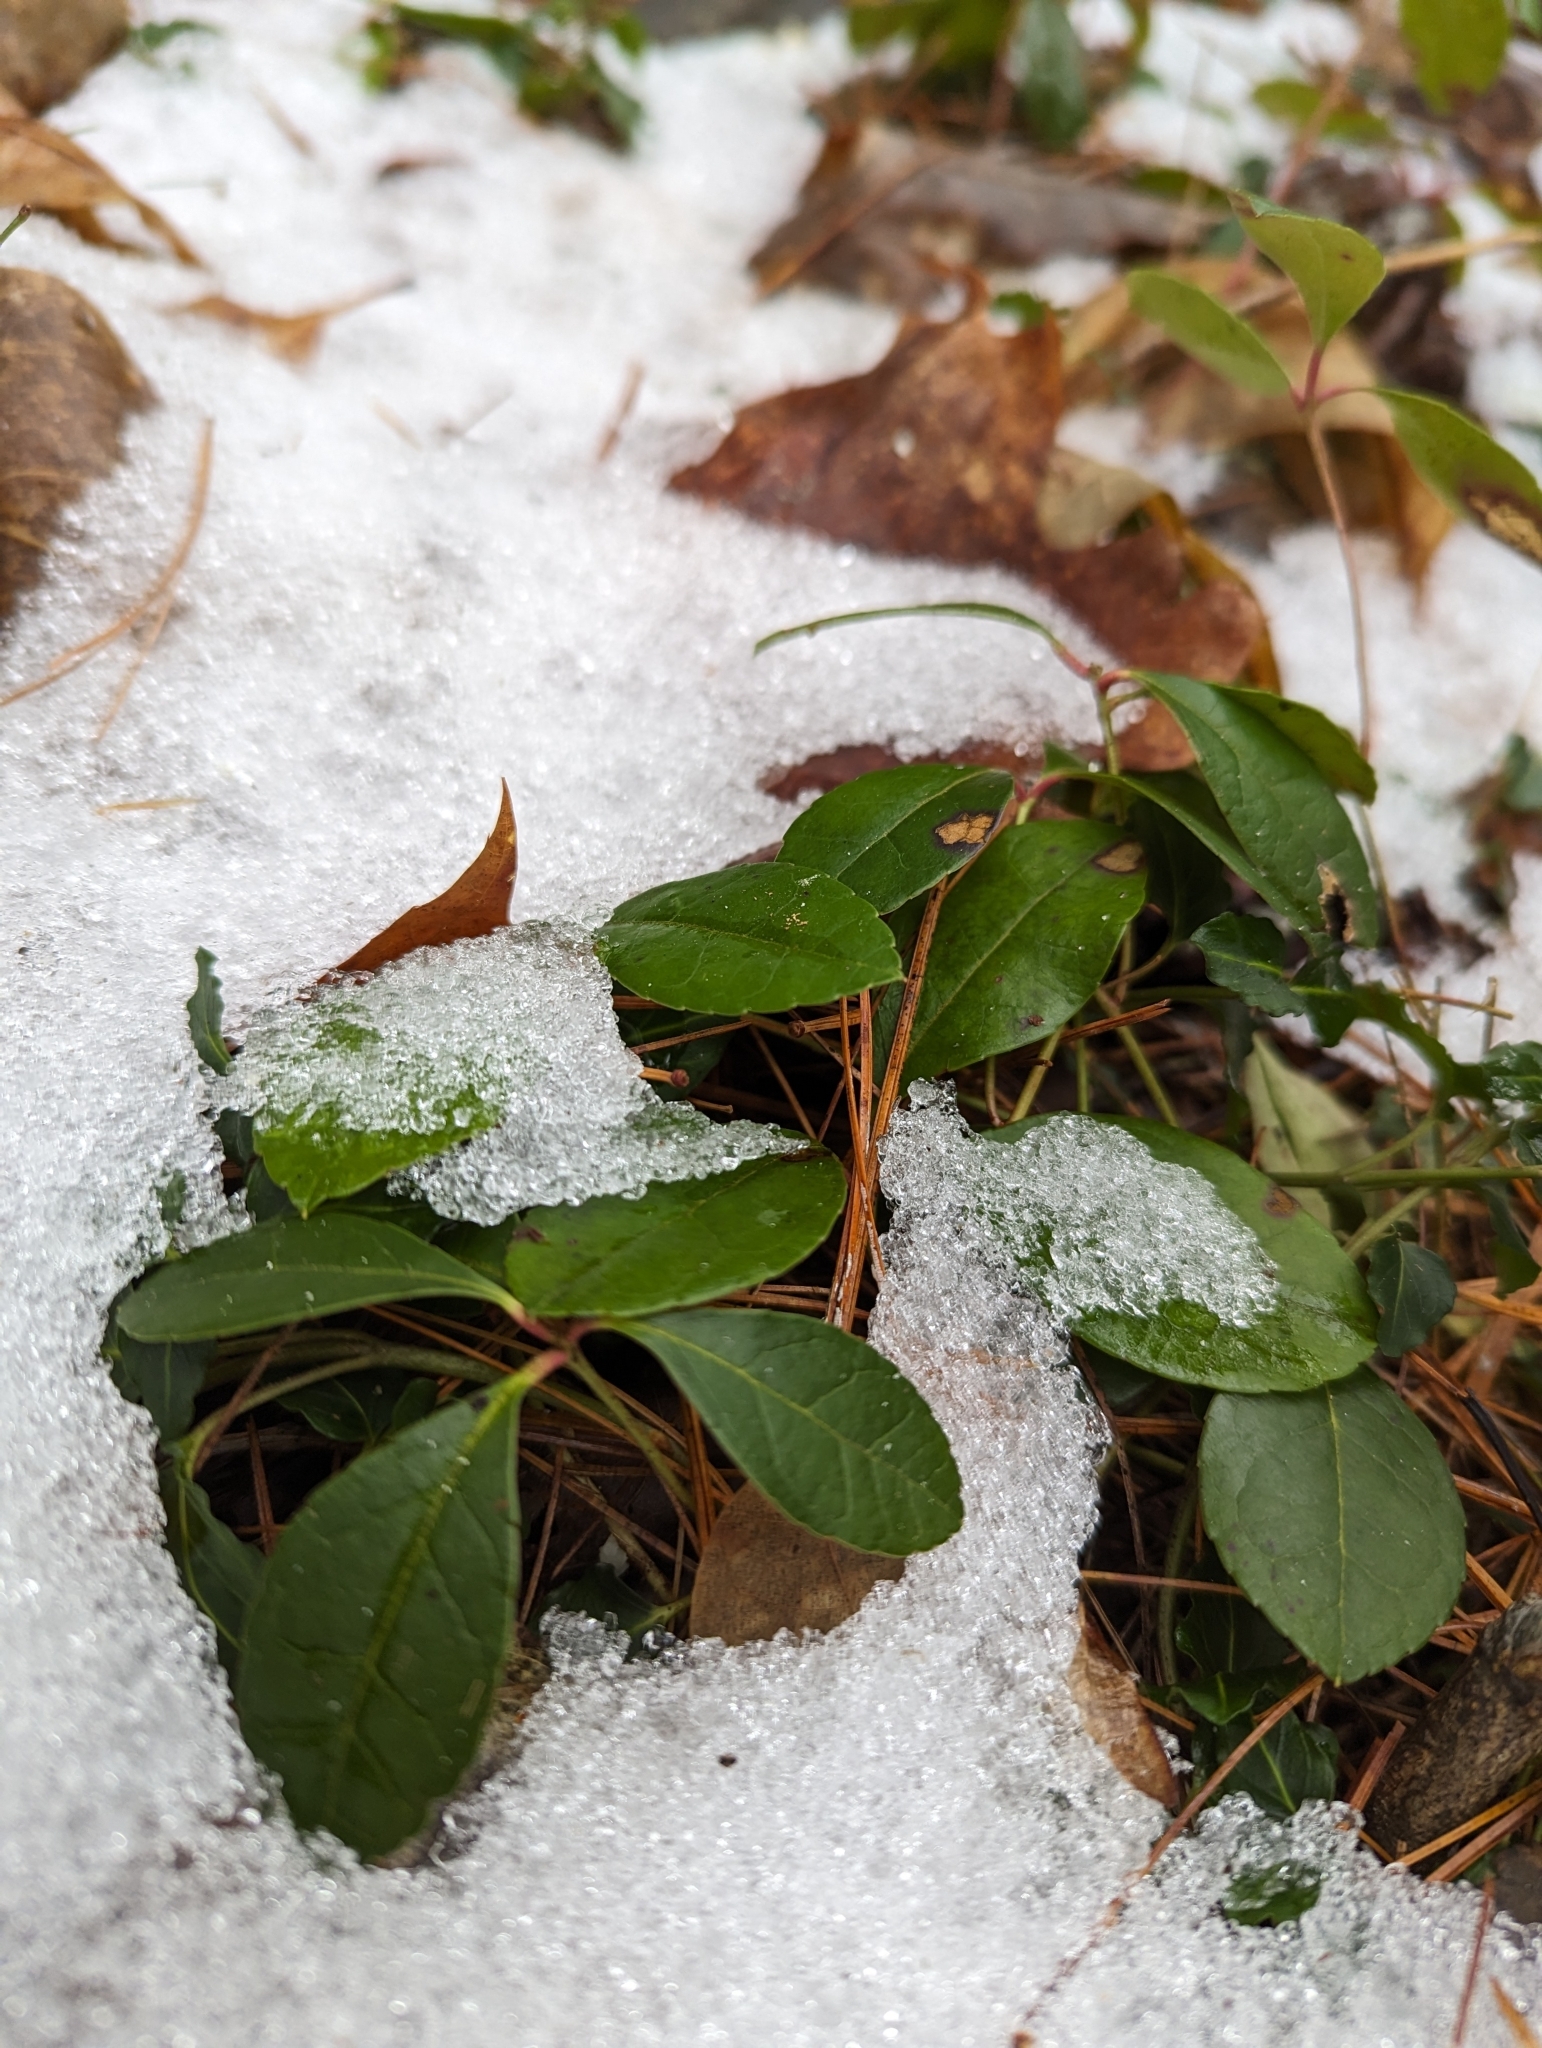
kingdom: Plantae
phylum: Tracheophyta
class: Magnoliopsida
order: Ericales
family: Ericaceae
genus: Gaultheria
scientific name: Gaultheria procumbens
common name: Checkerberry
